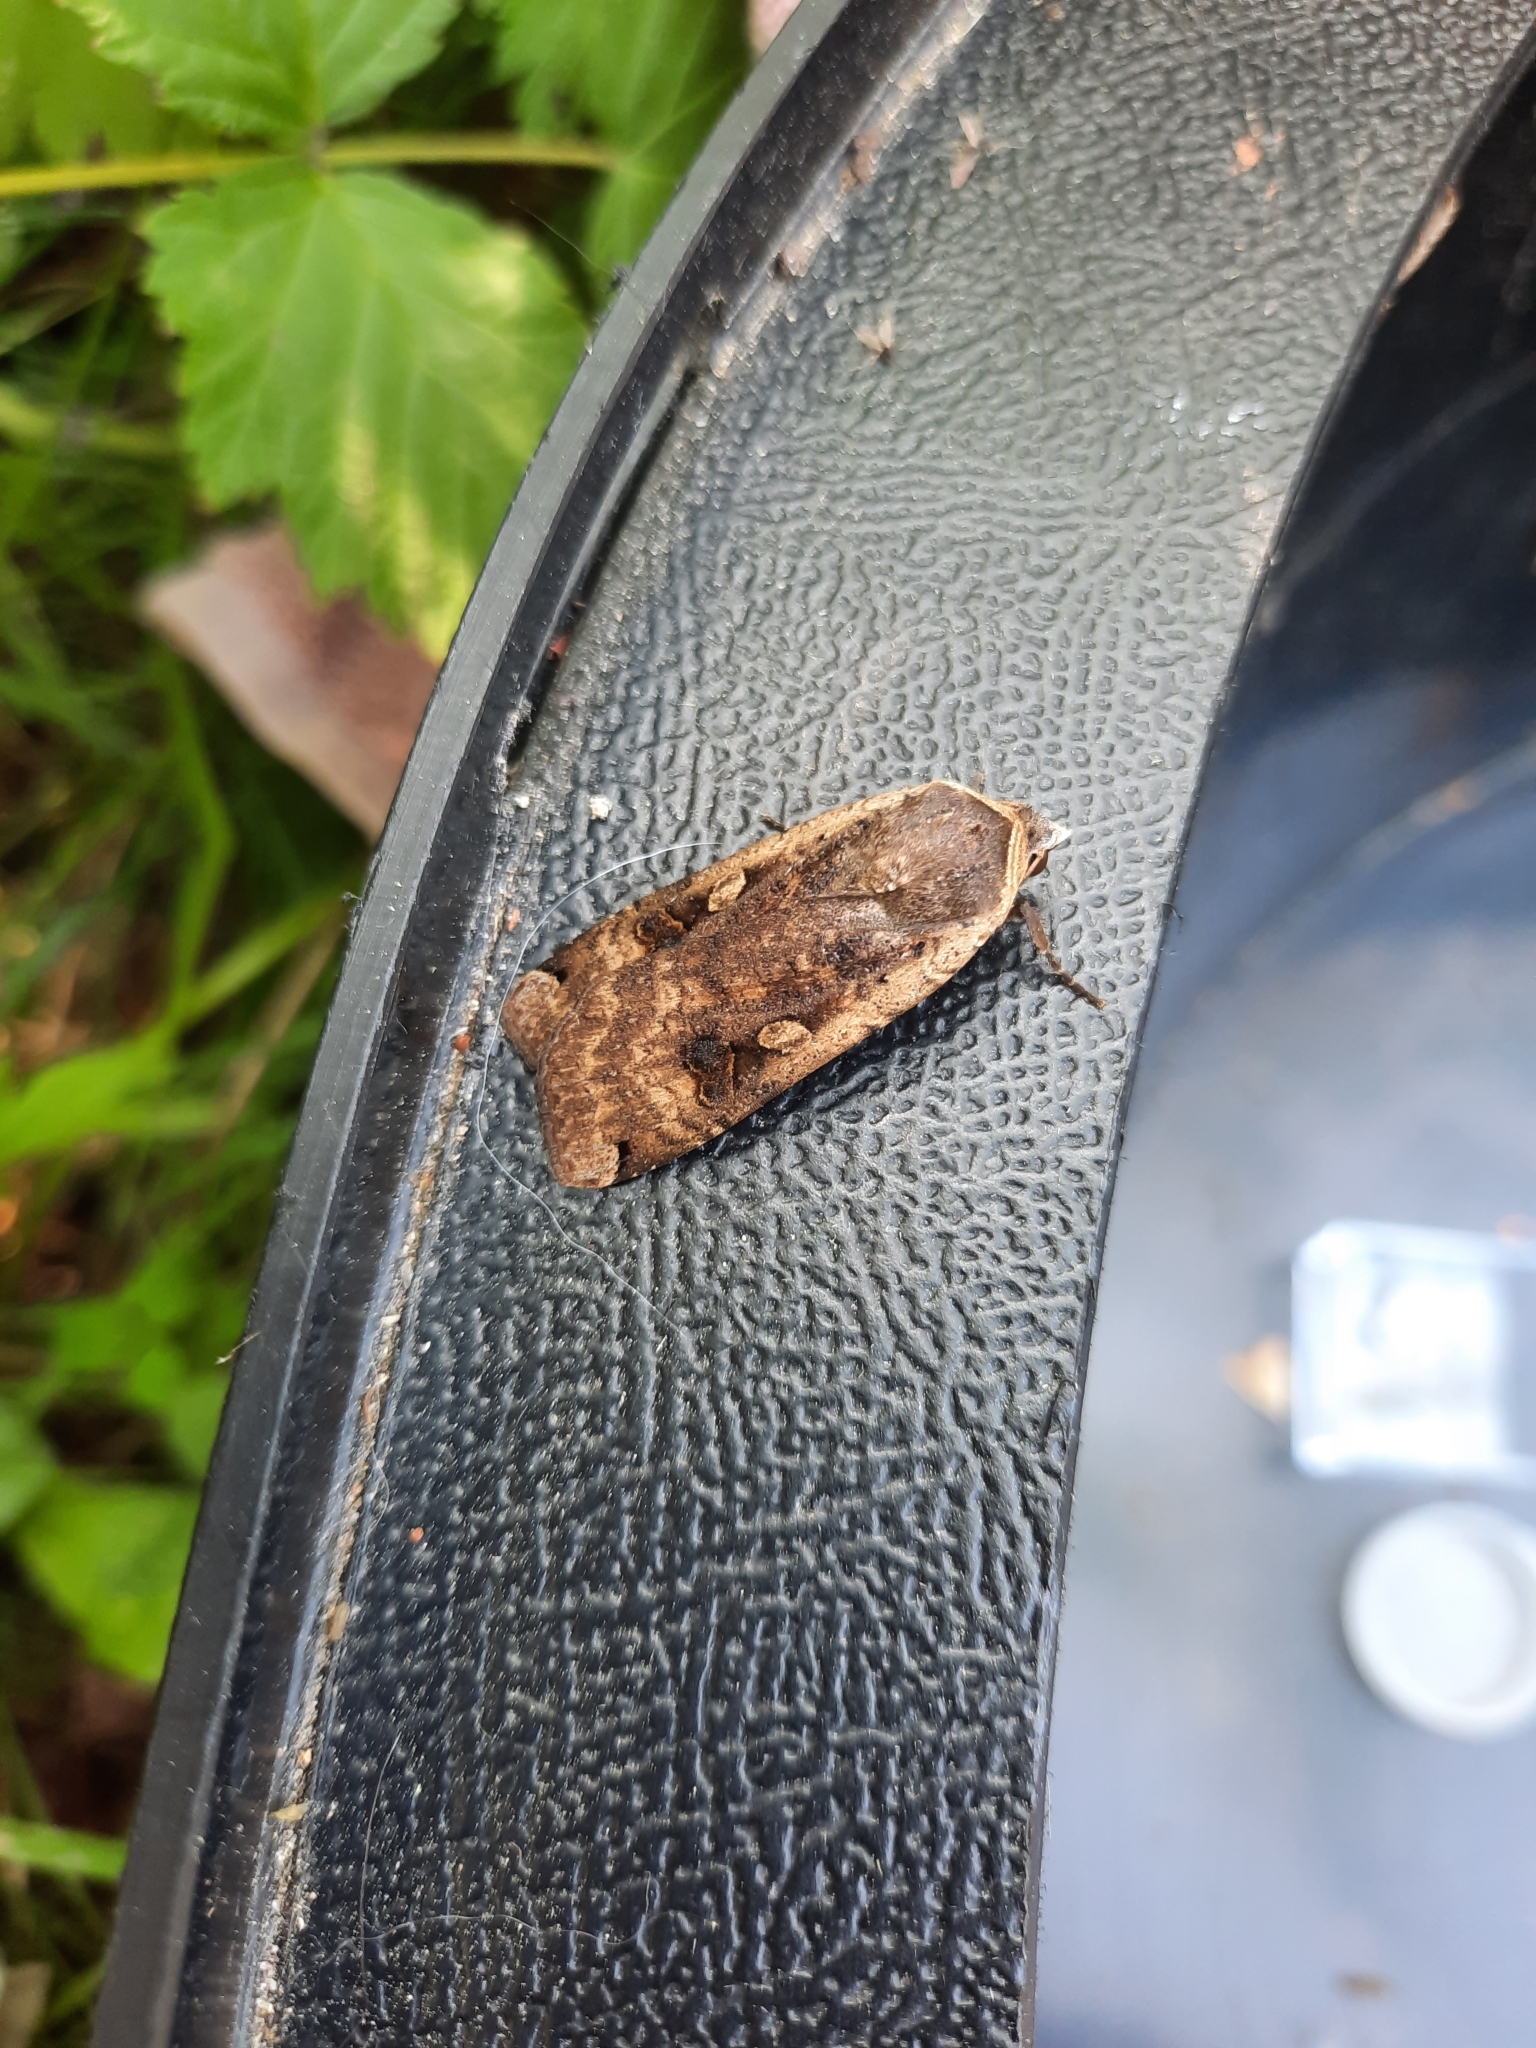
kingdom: Animalia
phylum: Arthropoda
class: Insecta
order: Lepidoptera
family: Noctuidae
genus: Noctua
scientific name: Noctua pronuba
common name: Large yellow underwing
